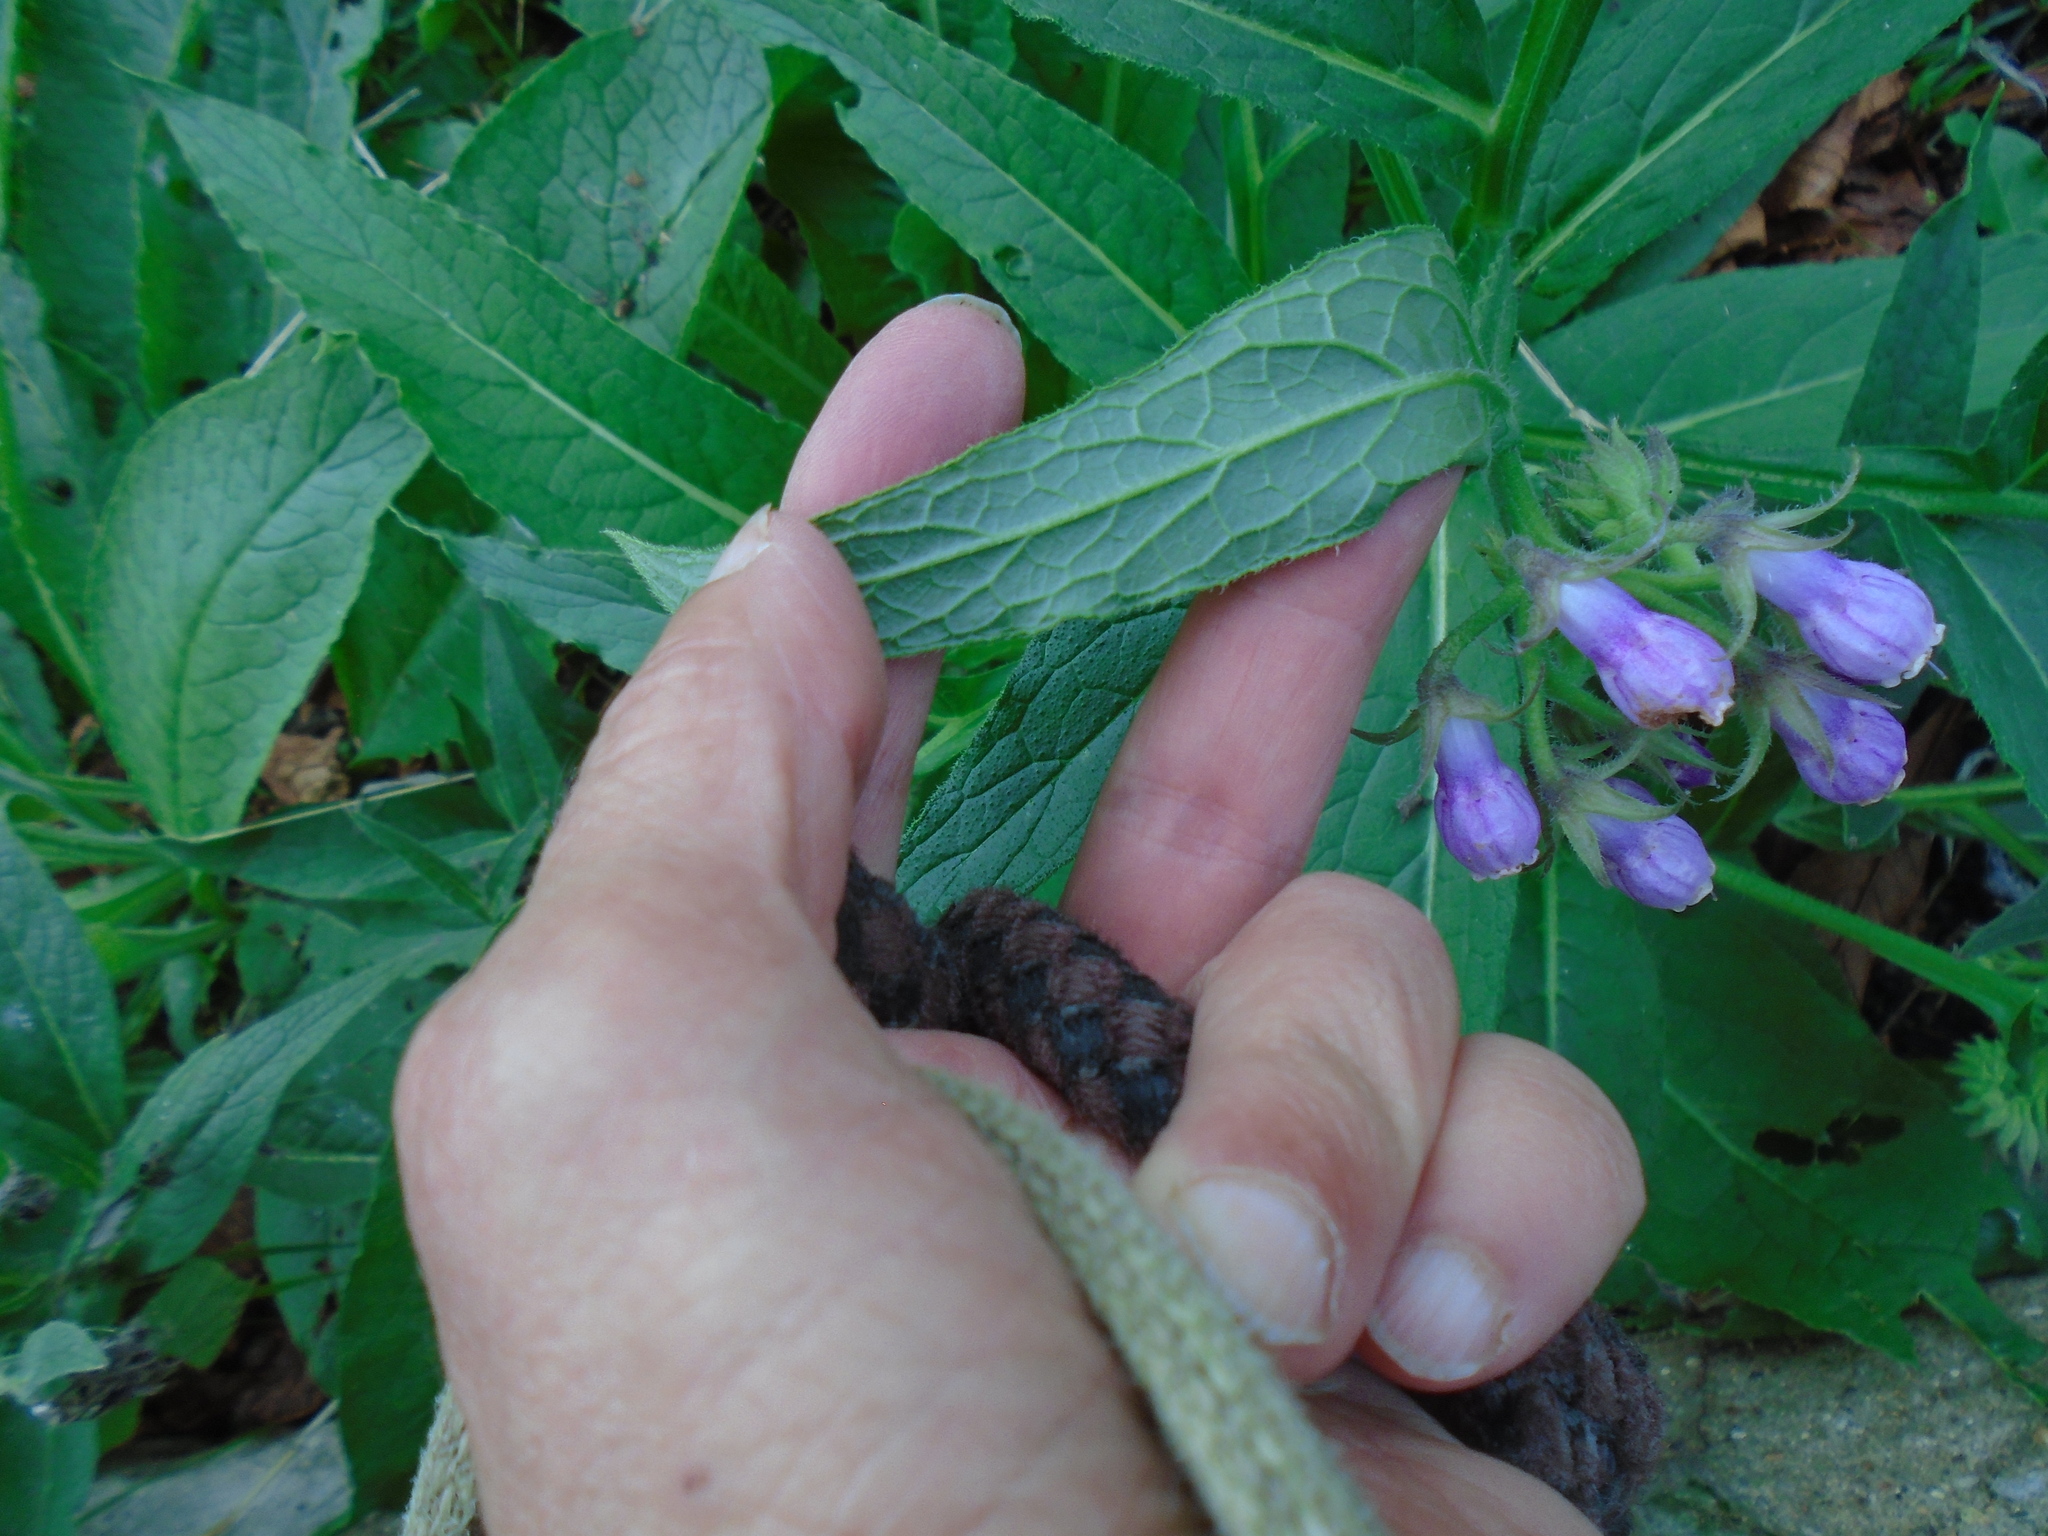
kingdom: Plantae
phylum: Tracheophyta
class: Magnoliopsida
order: Boraginales
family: Boraginaceae
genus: Symphytum
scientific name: Symphytum officinale
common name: Common comfrey
